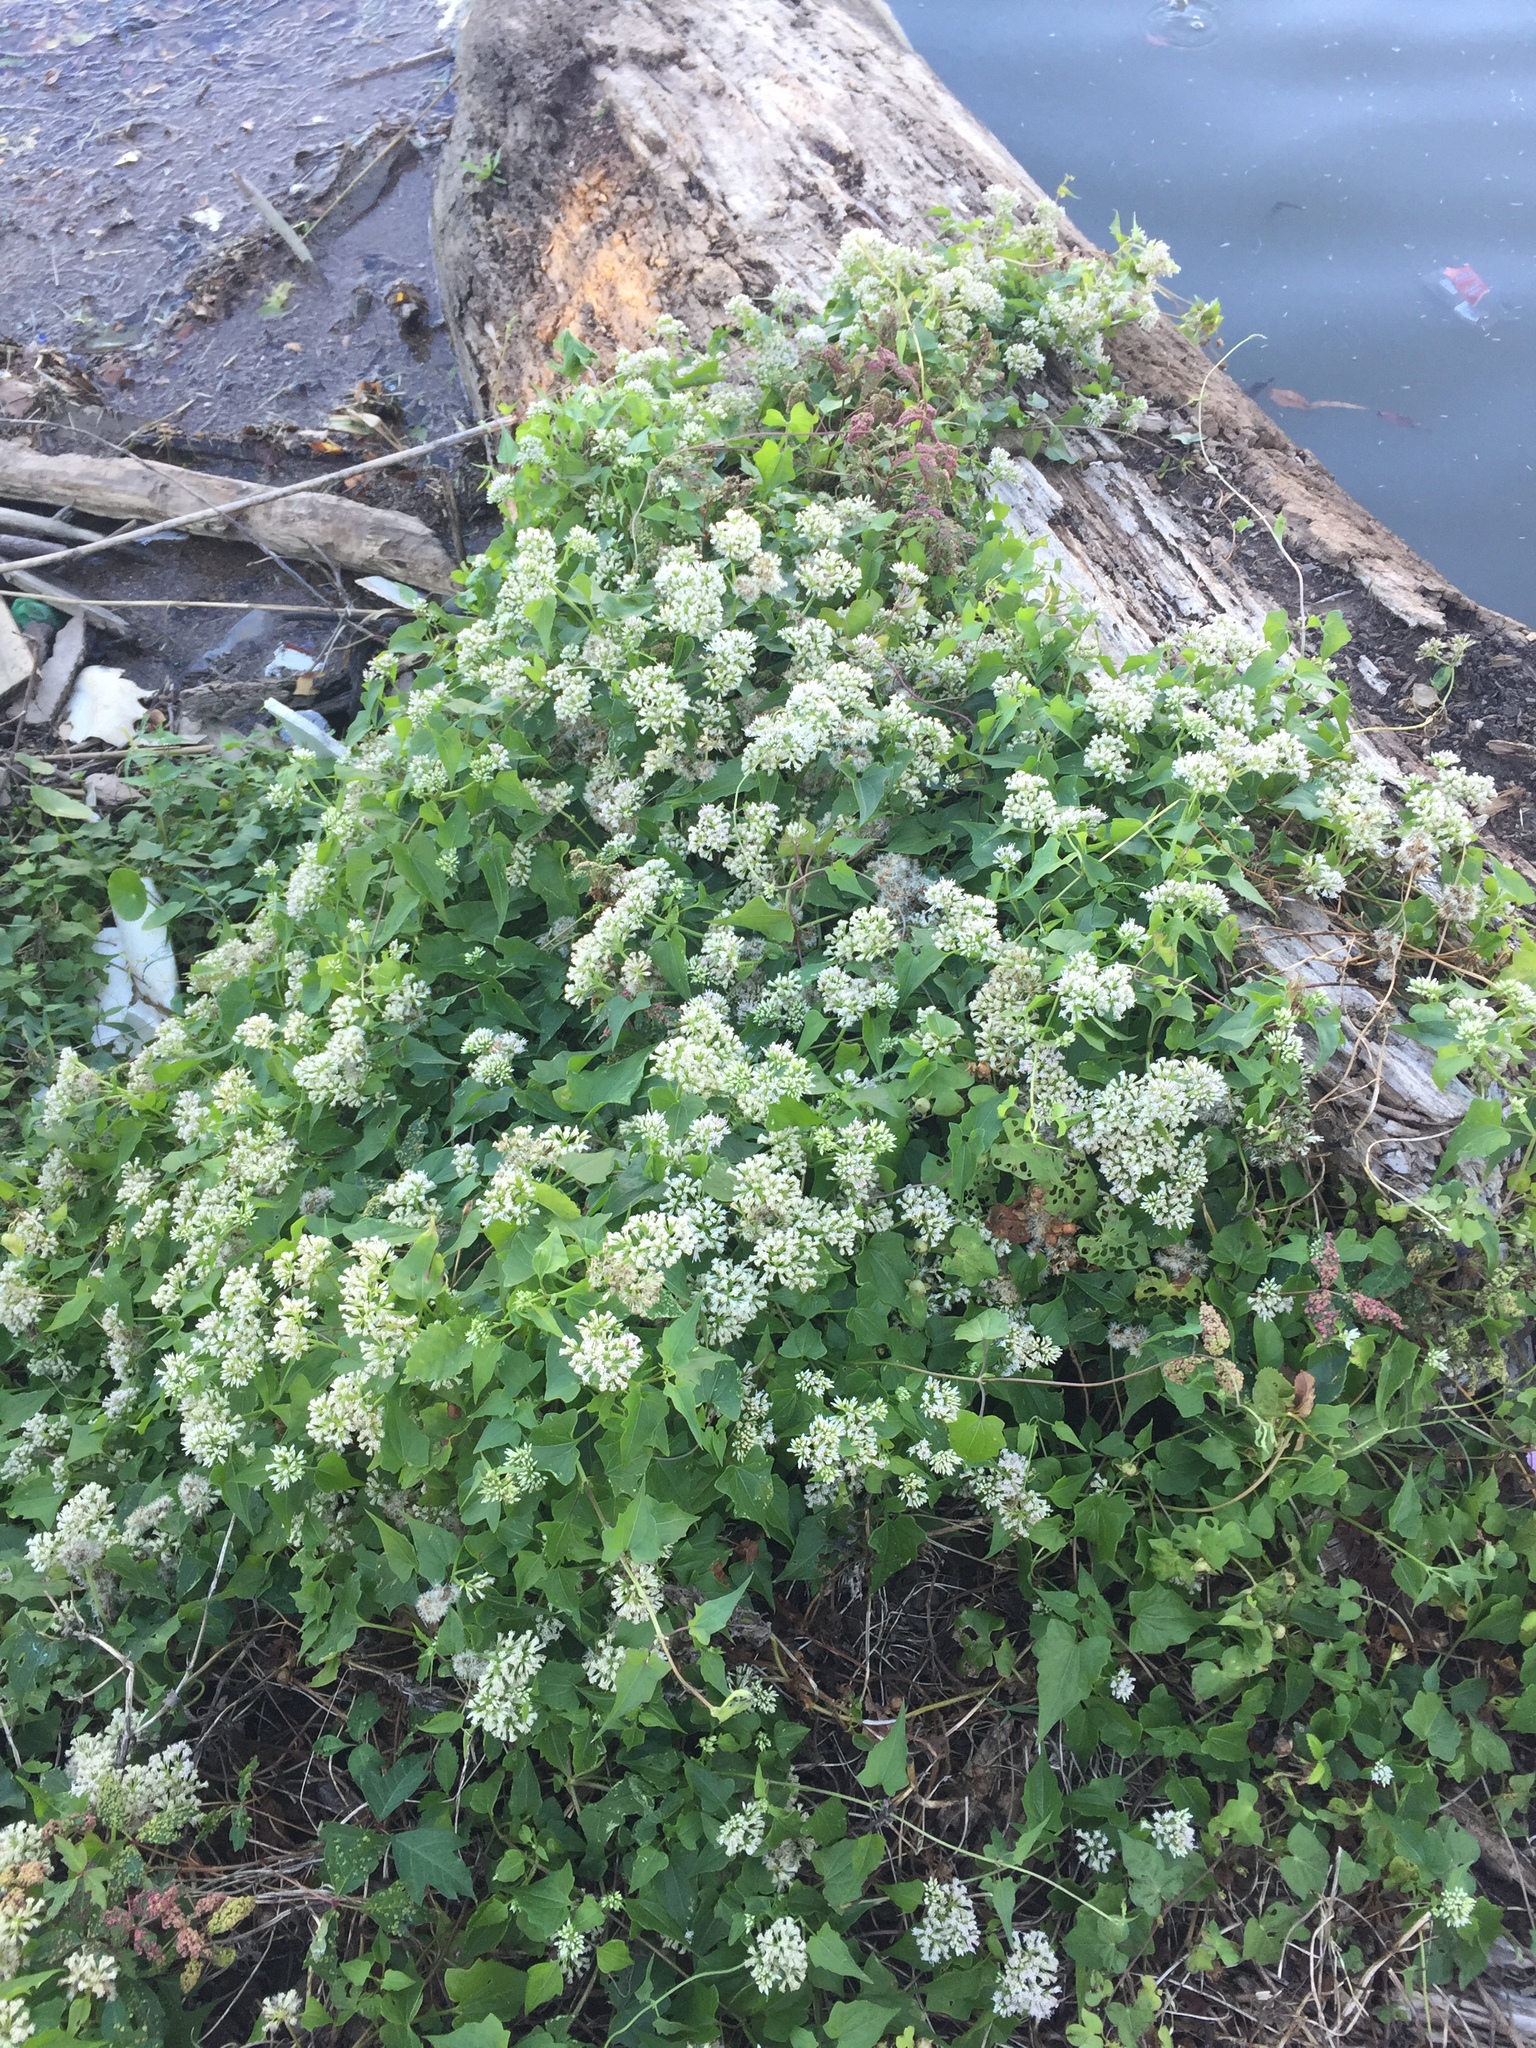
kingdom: Plantae
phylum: Tracheophyta
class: Magnoliopsida
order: Asterales
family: Asteraceae
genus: Mikania
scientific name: Mikania scandens
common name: Climbing hempvine
